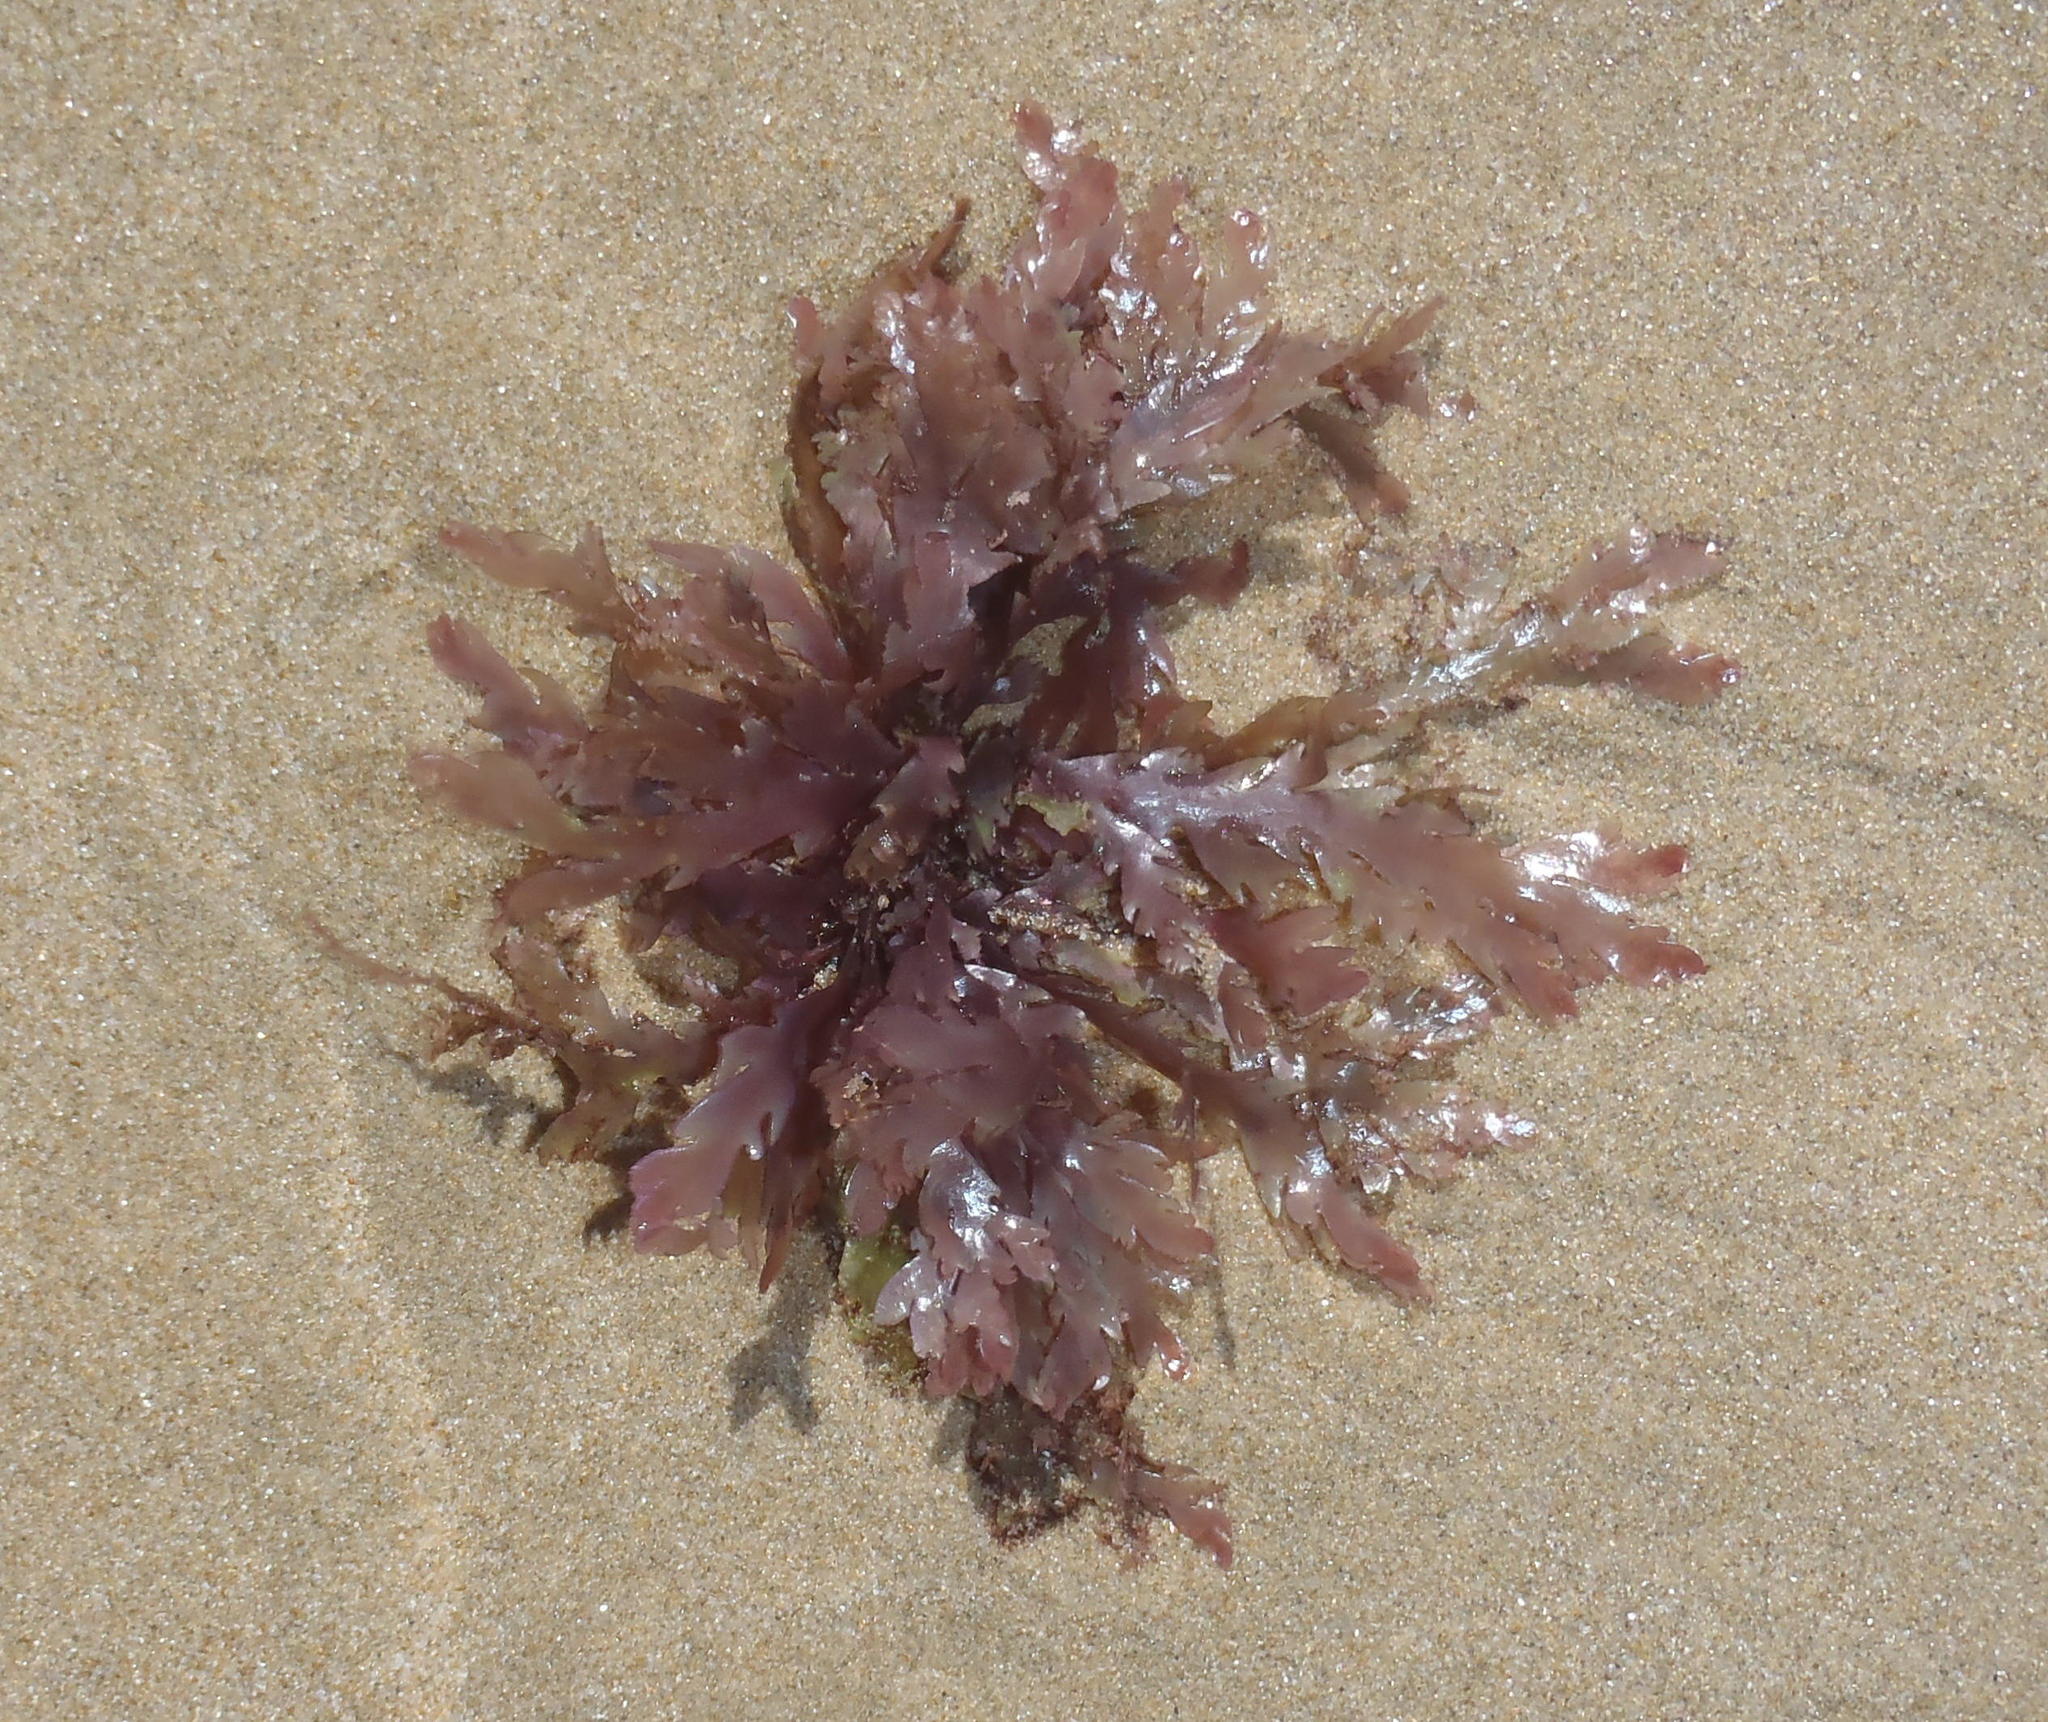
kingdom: Plantae
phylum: Rhodophyta
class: Florideophyceae
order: Plocamiales
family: Plocamiaceae
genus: Plocamium
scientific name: Plocamium corallorhiza
